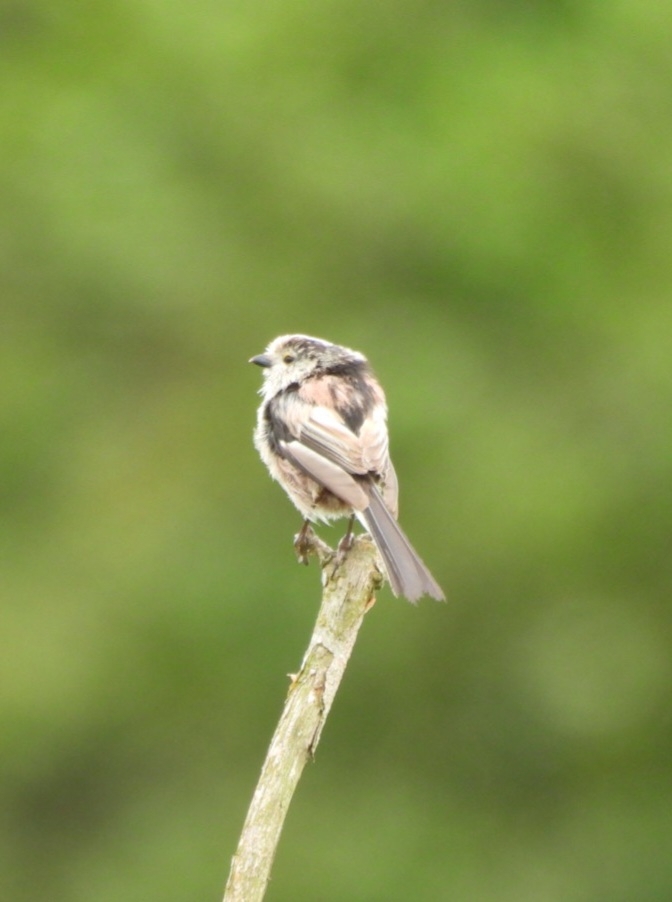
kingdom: Animalia
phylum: Chordata
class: Aves
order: Passeriformes
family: Aegithalidae
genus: Aegithalos
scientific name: Aegithalos caudatus
